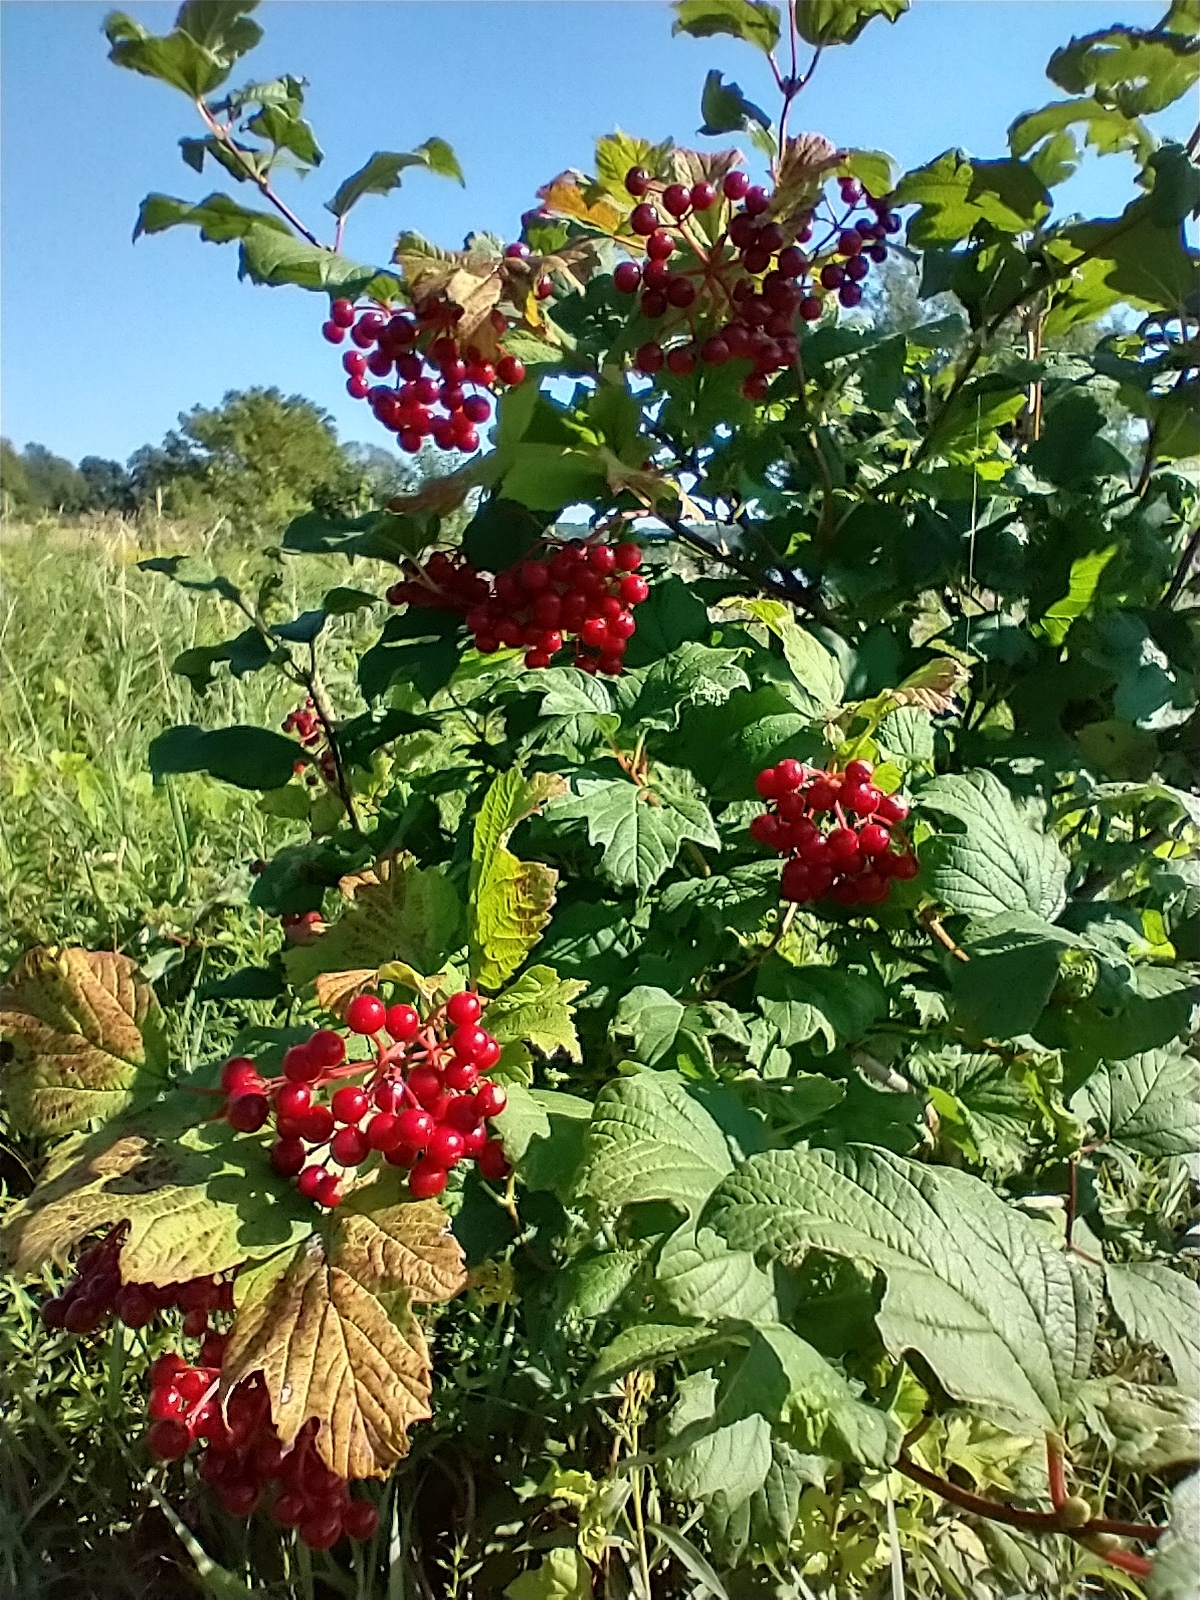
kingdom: Plantae
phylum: Tracheophyta
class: Magnoliopsida
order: Dipsacales
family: Viburnaceae
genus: Viburnum
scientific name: Viburnum opulus
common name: Guelder-rose
